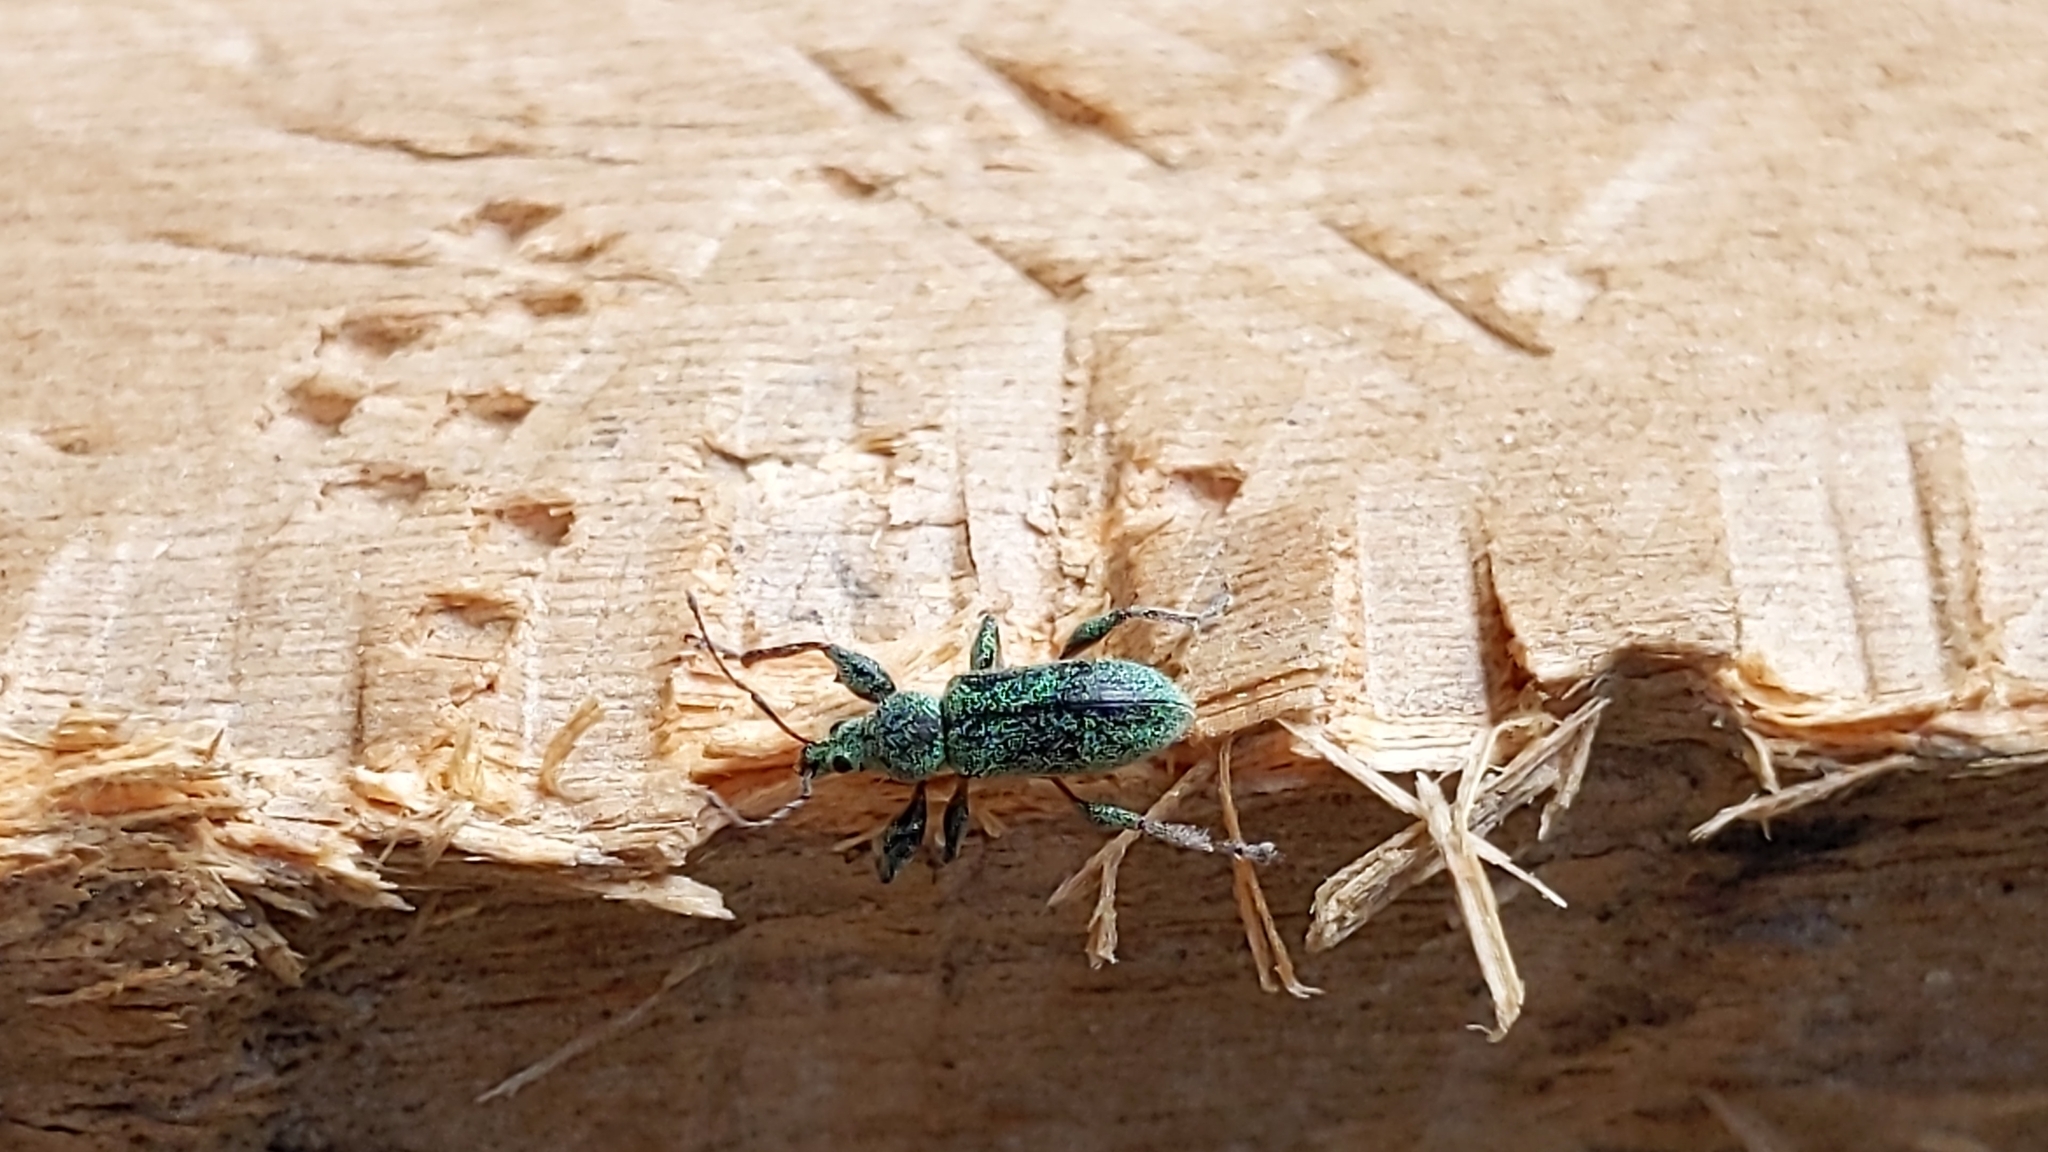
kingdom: Animalia
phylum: Arthropoda
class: Insecta
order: Coleoptera
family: Curculionidae
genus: Phyllobius
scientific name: Phyllobius arborator
